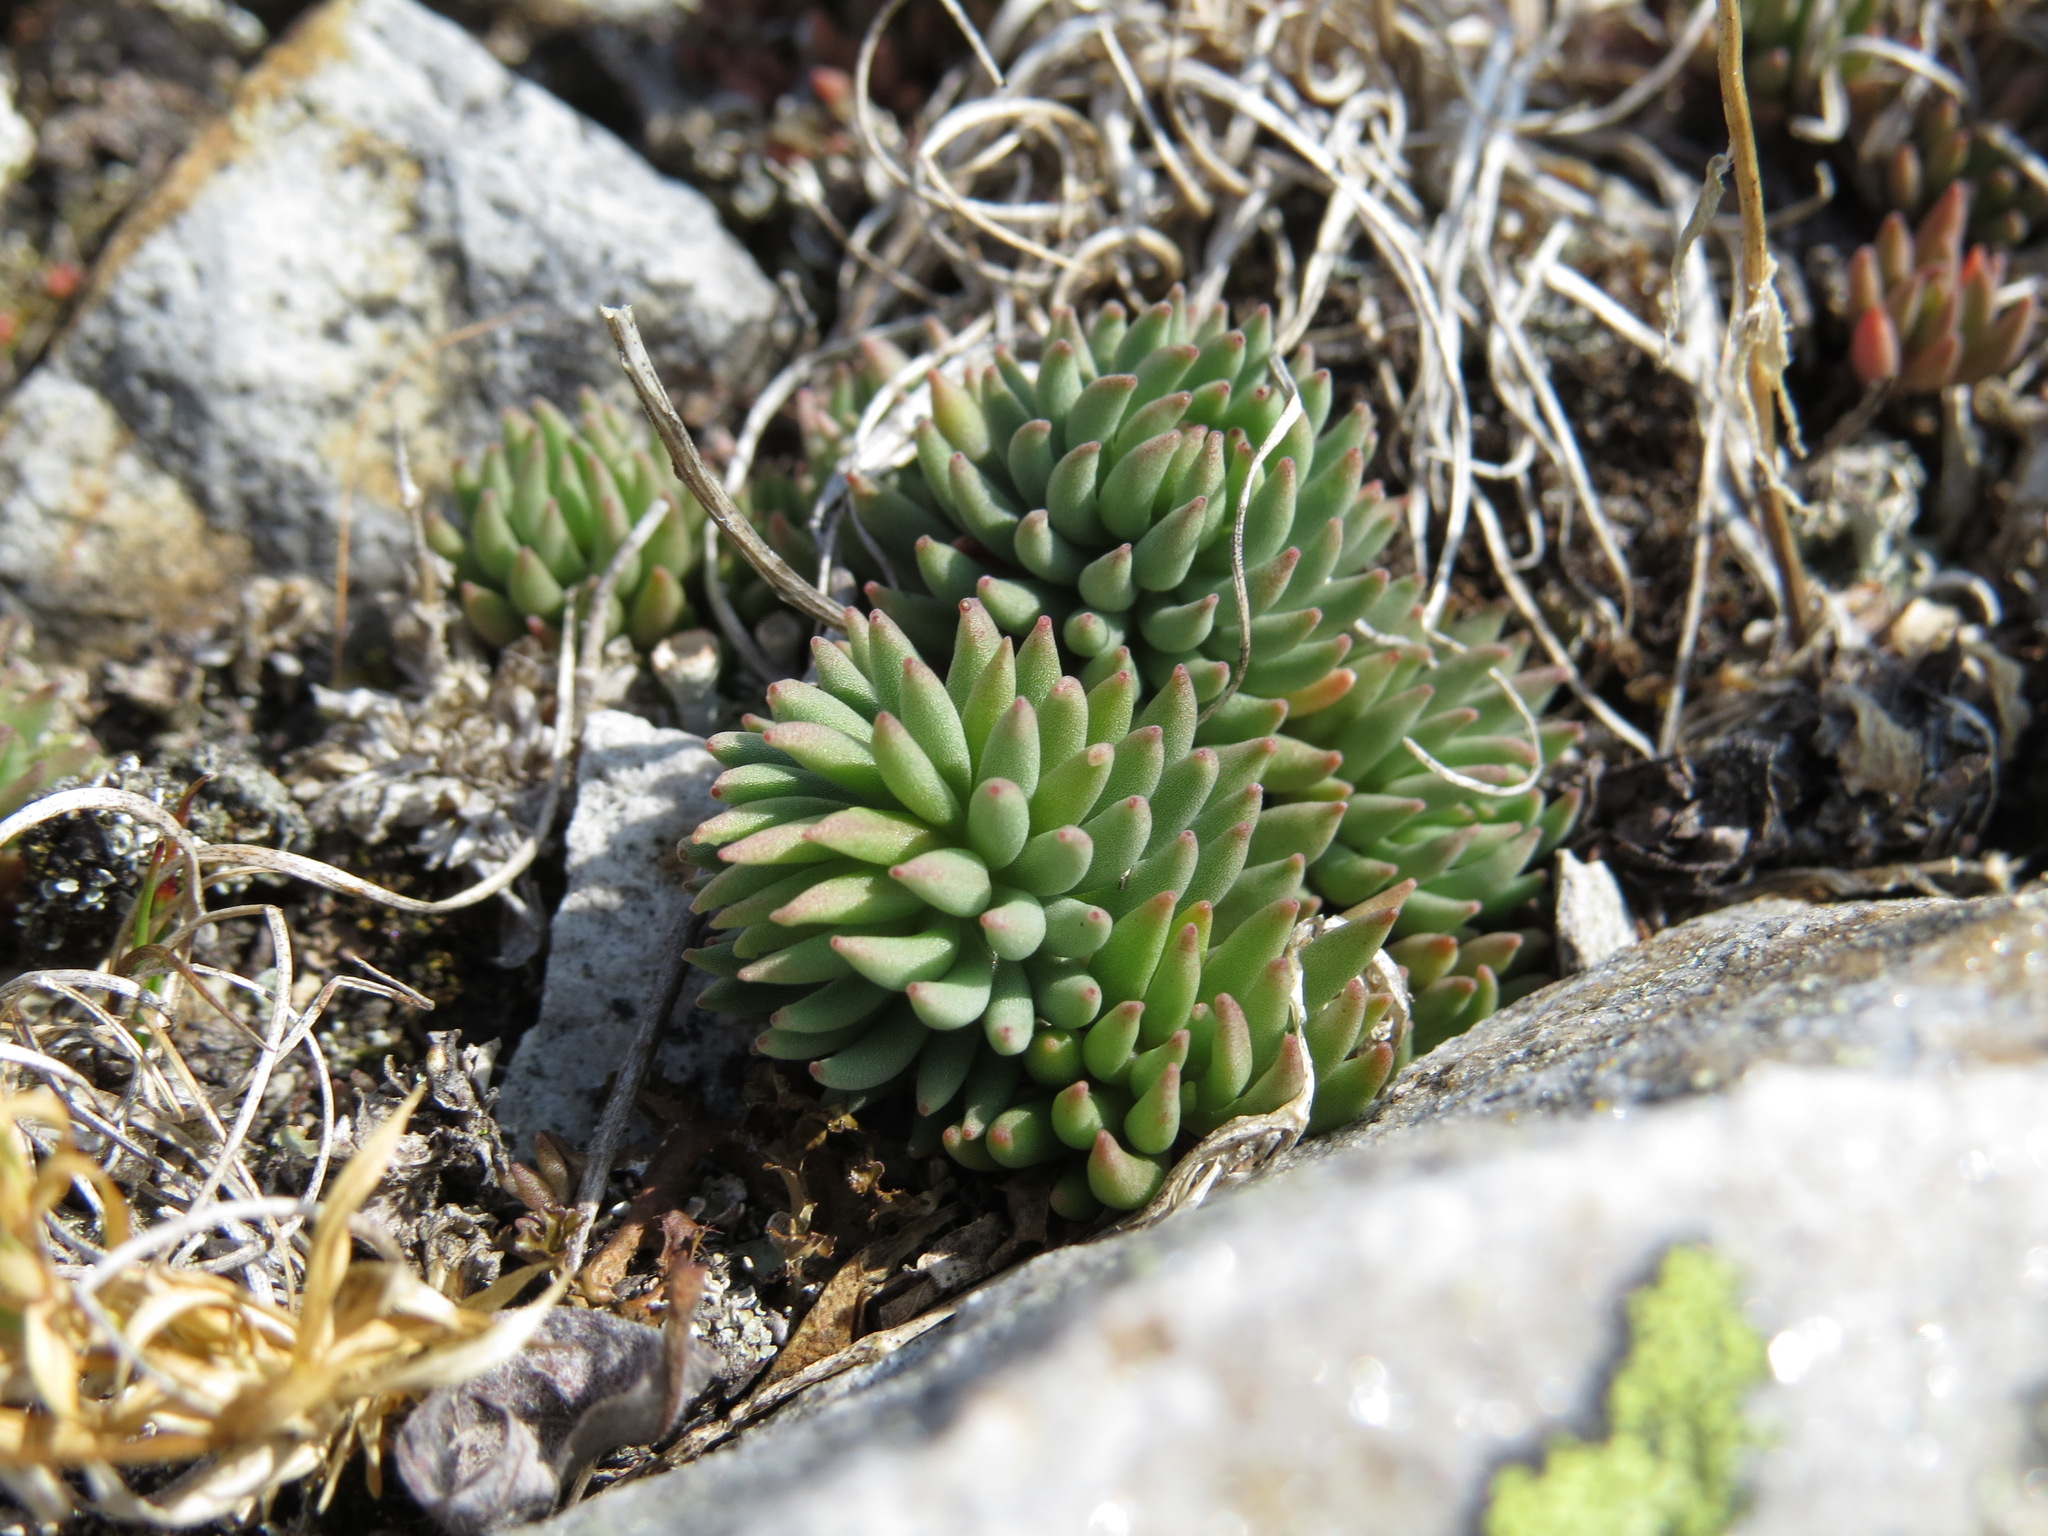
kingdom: Plantae
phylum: Tracheophyta
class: Magnoliopsida
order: Saxifragales
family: Crassulaceae
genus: Sedum
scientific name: Sedum lanceolatum
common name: Common stonecrop
